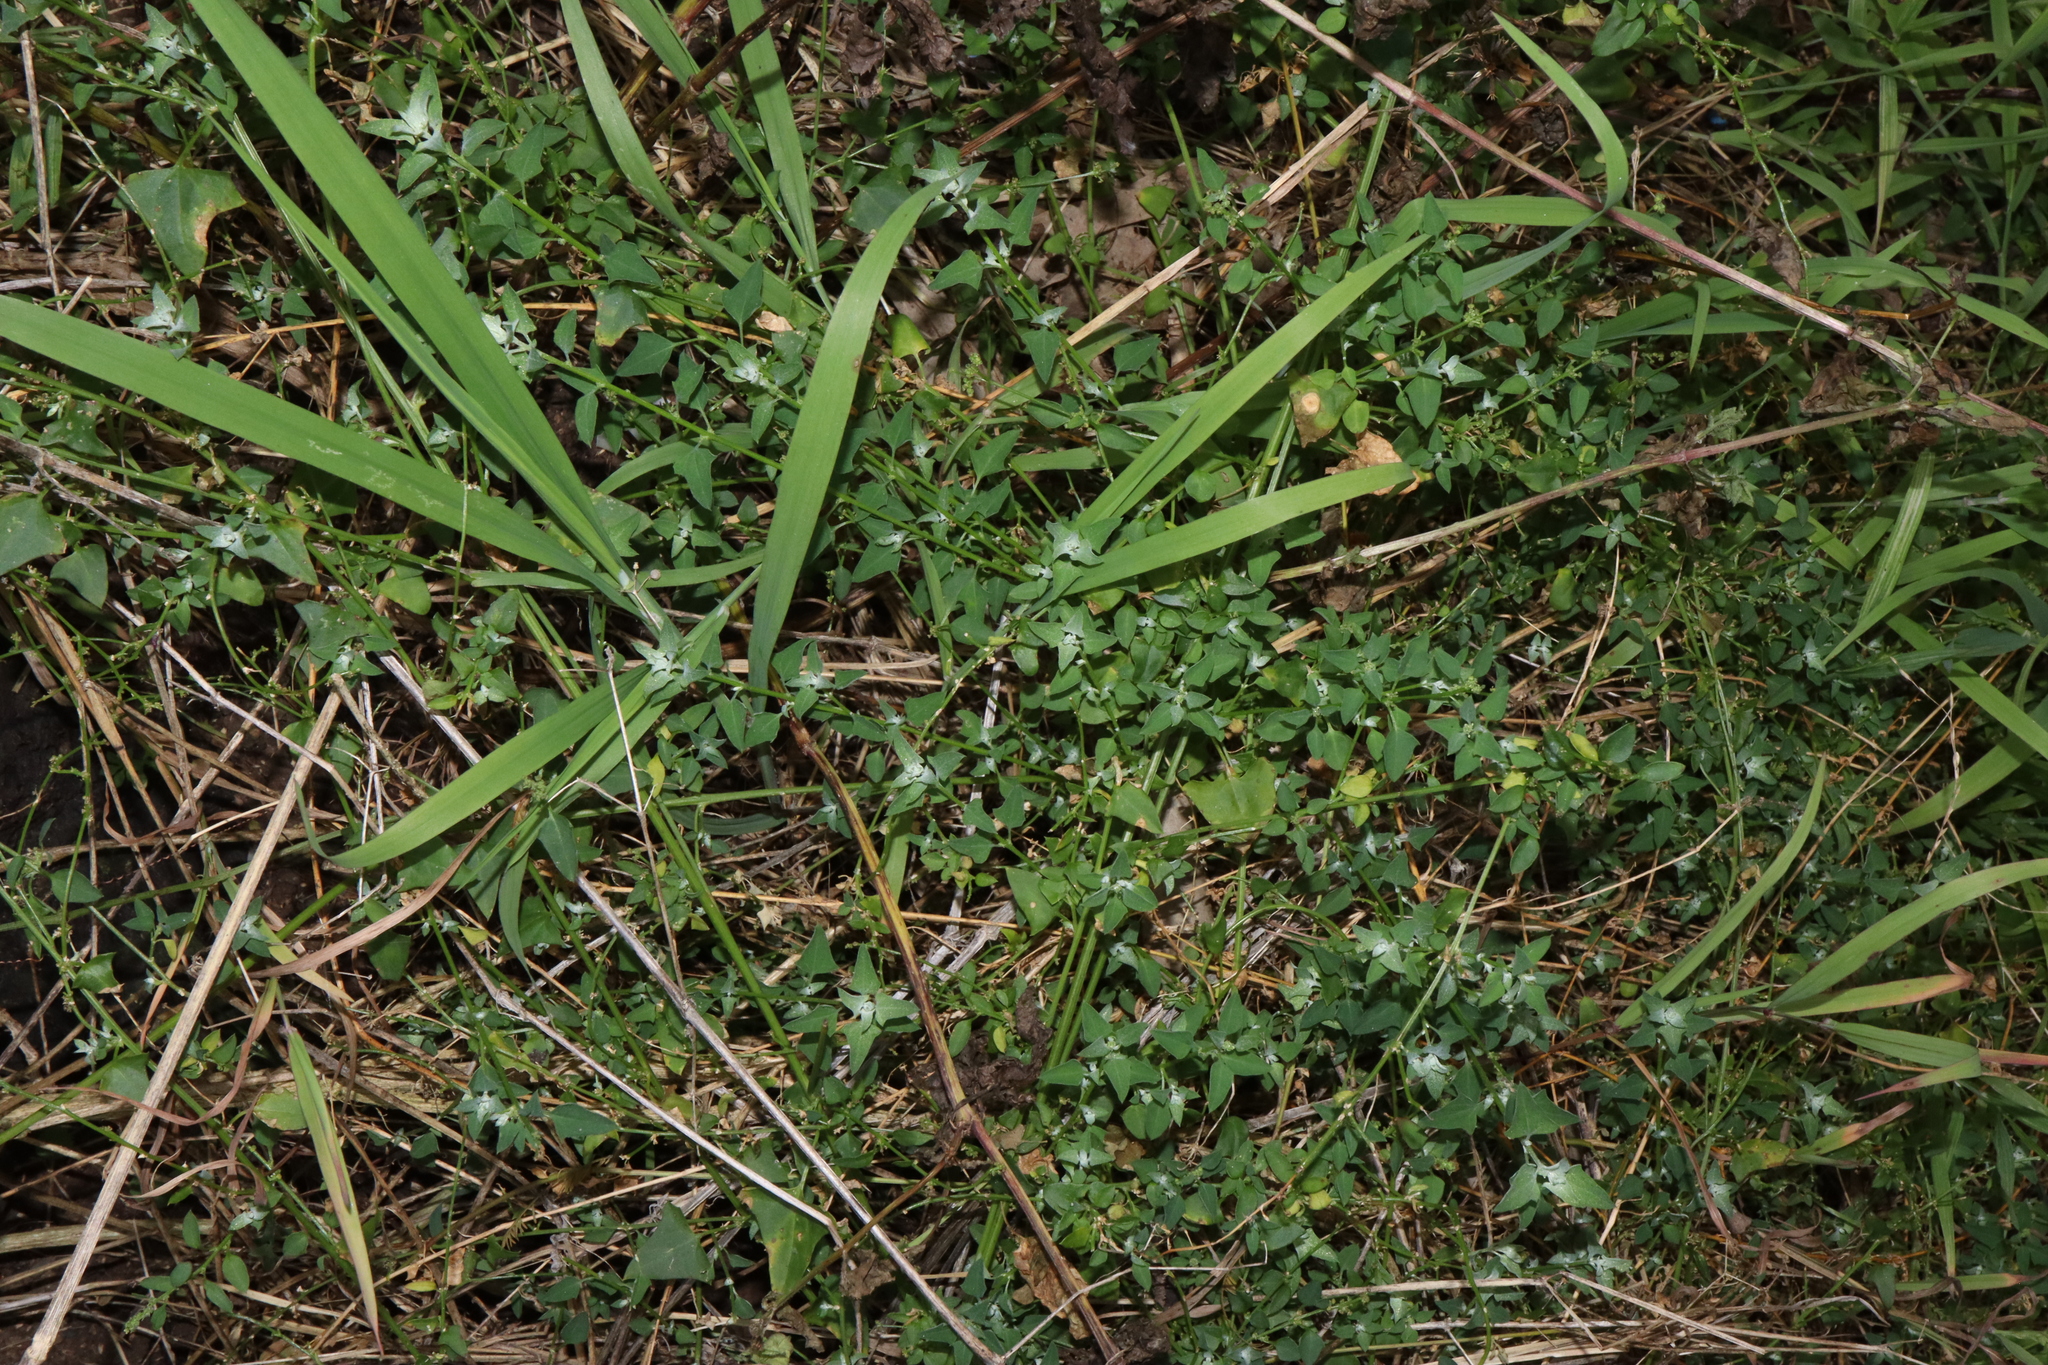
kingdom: Plantae
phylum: Tracheophyta
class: Magnoliopsida
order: Caryophyllales
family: Amaranthaceae
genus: Chenopodium
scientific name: Chenopodium trigonon
